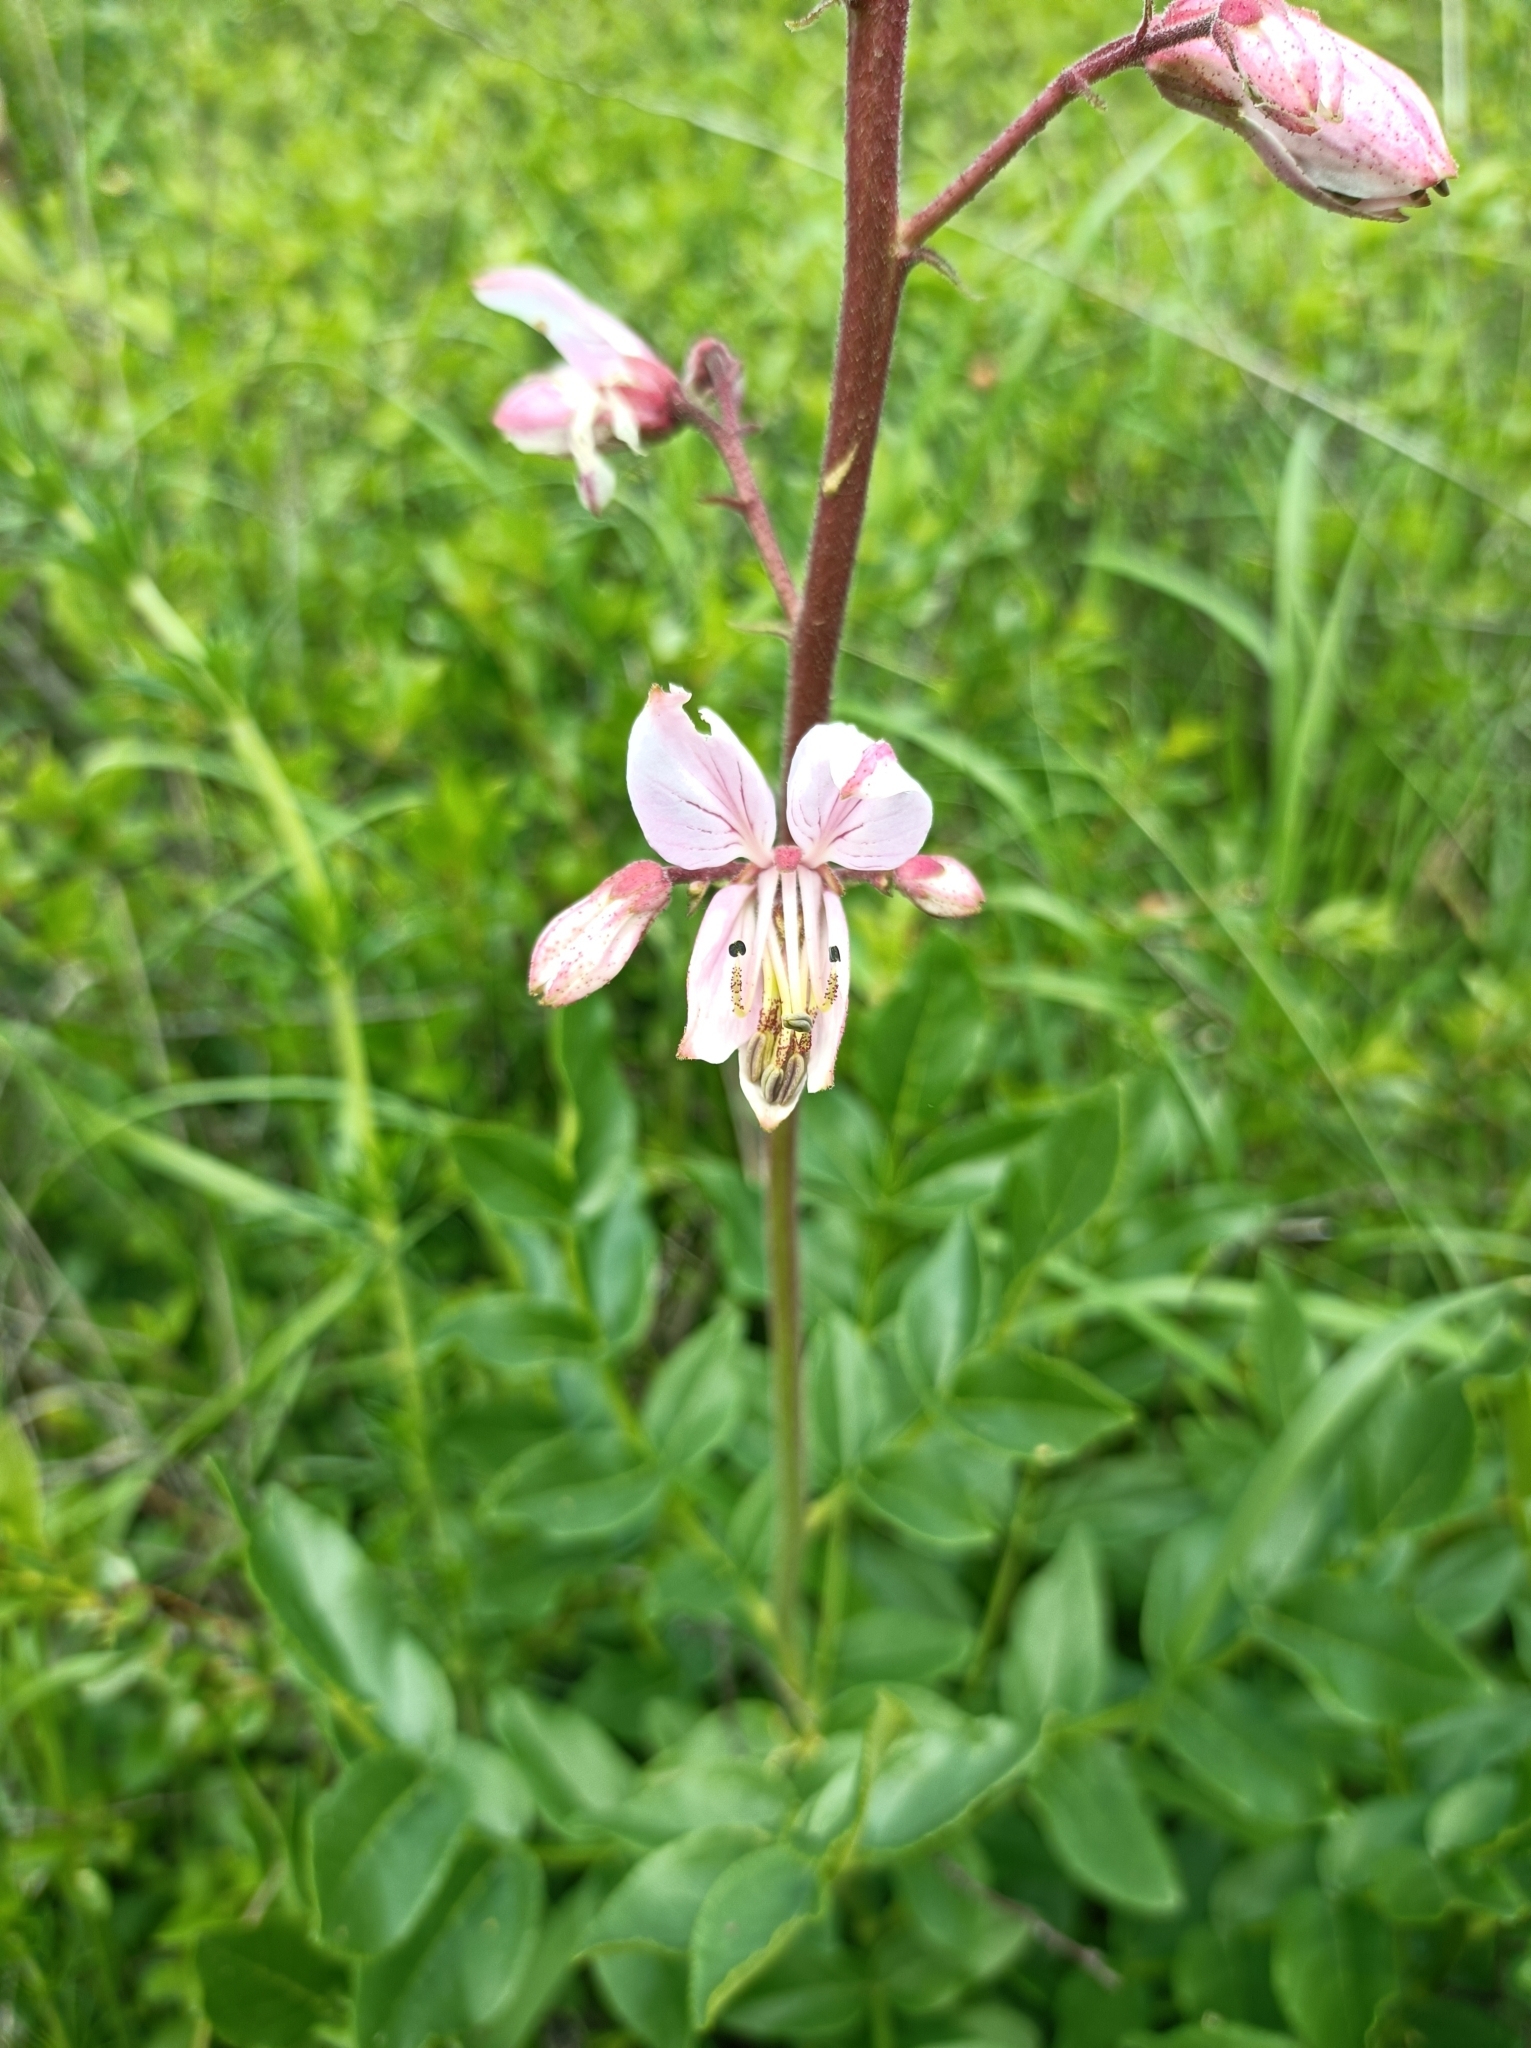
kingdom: Plantae
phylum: Tracheophyta
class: Magnoliopsida
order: Sapindales
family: Rutaceae
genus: Dictamnus
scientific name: Dictamnus albus
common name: Gasplant
